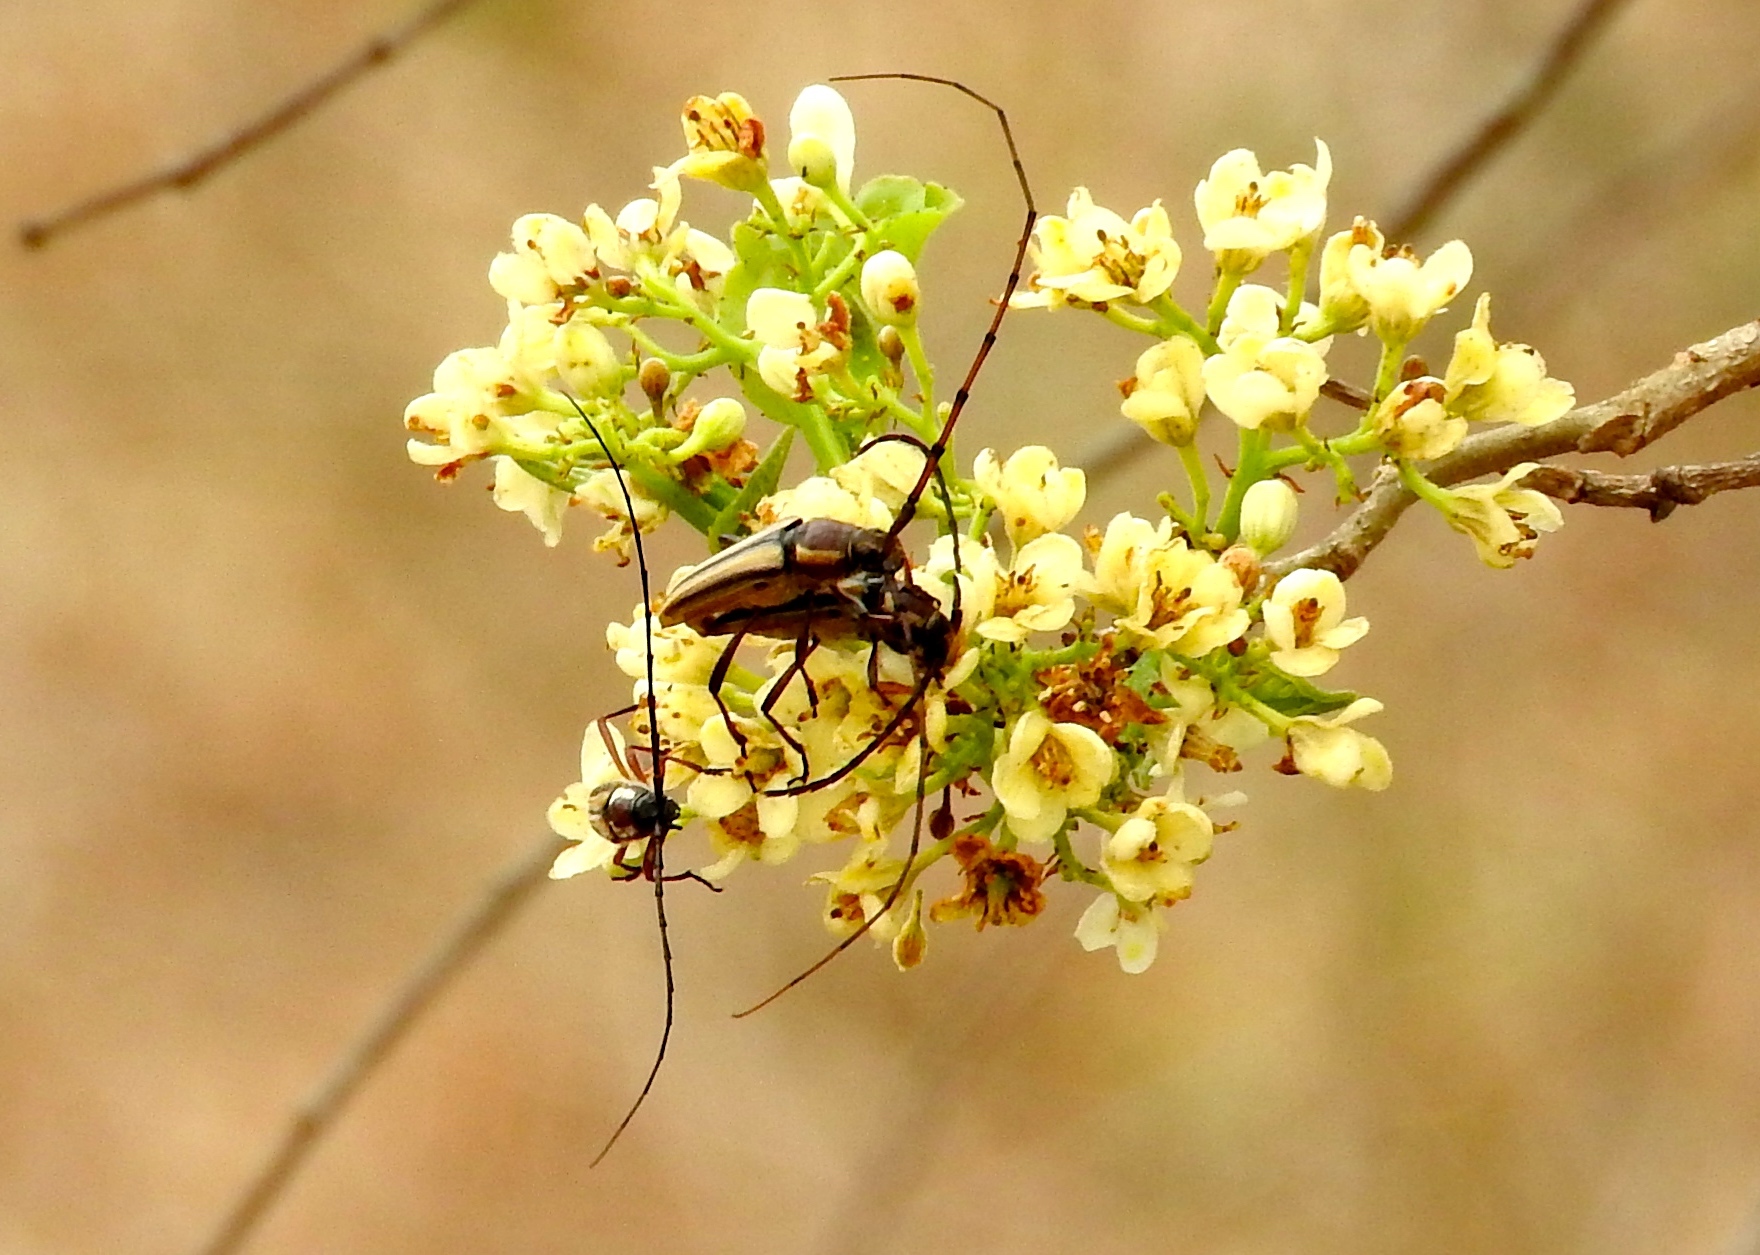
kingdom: Animalia
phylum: Arthropoda
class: Insecta
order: Coleoptera
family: Cerambycidae
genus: Sphaenothecus
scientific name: Sphaenothecus maccartyi
